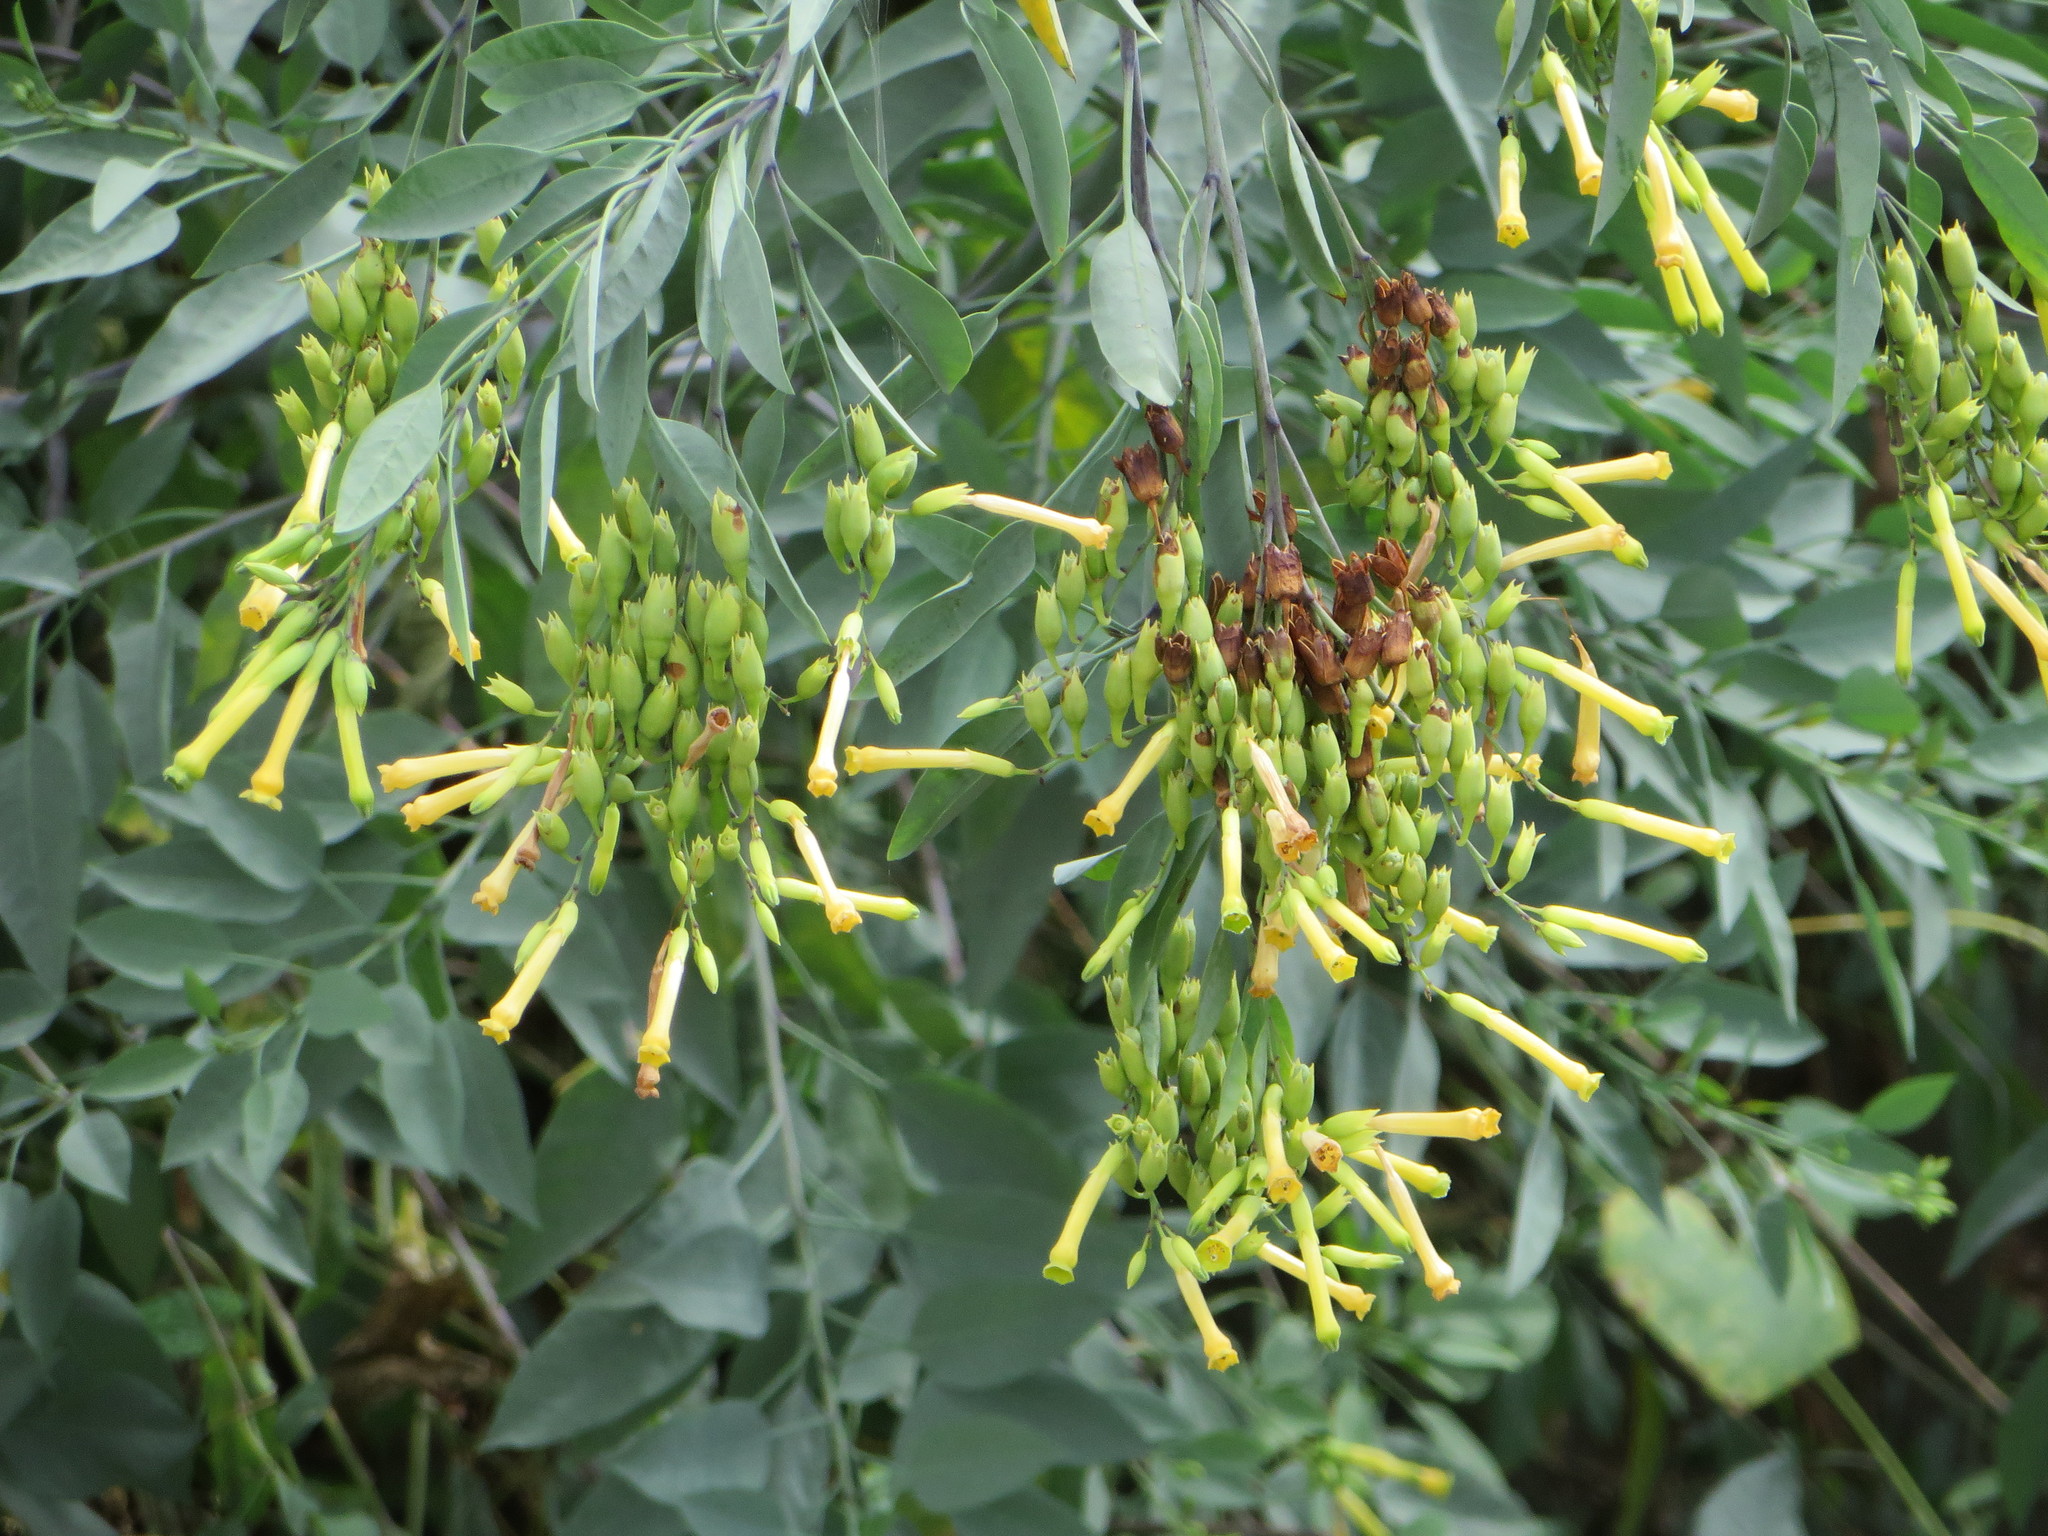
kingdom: Plantae
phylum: Tracheophyta
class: Magnoliopsida
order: Solanales
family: Solanaceae
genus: Nicotiana
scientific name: Nicotiana glauca
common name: Tree tobacco
